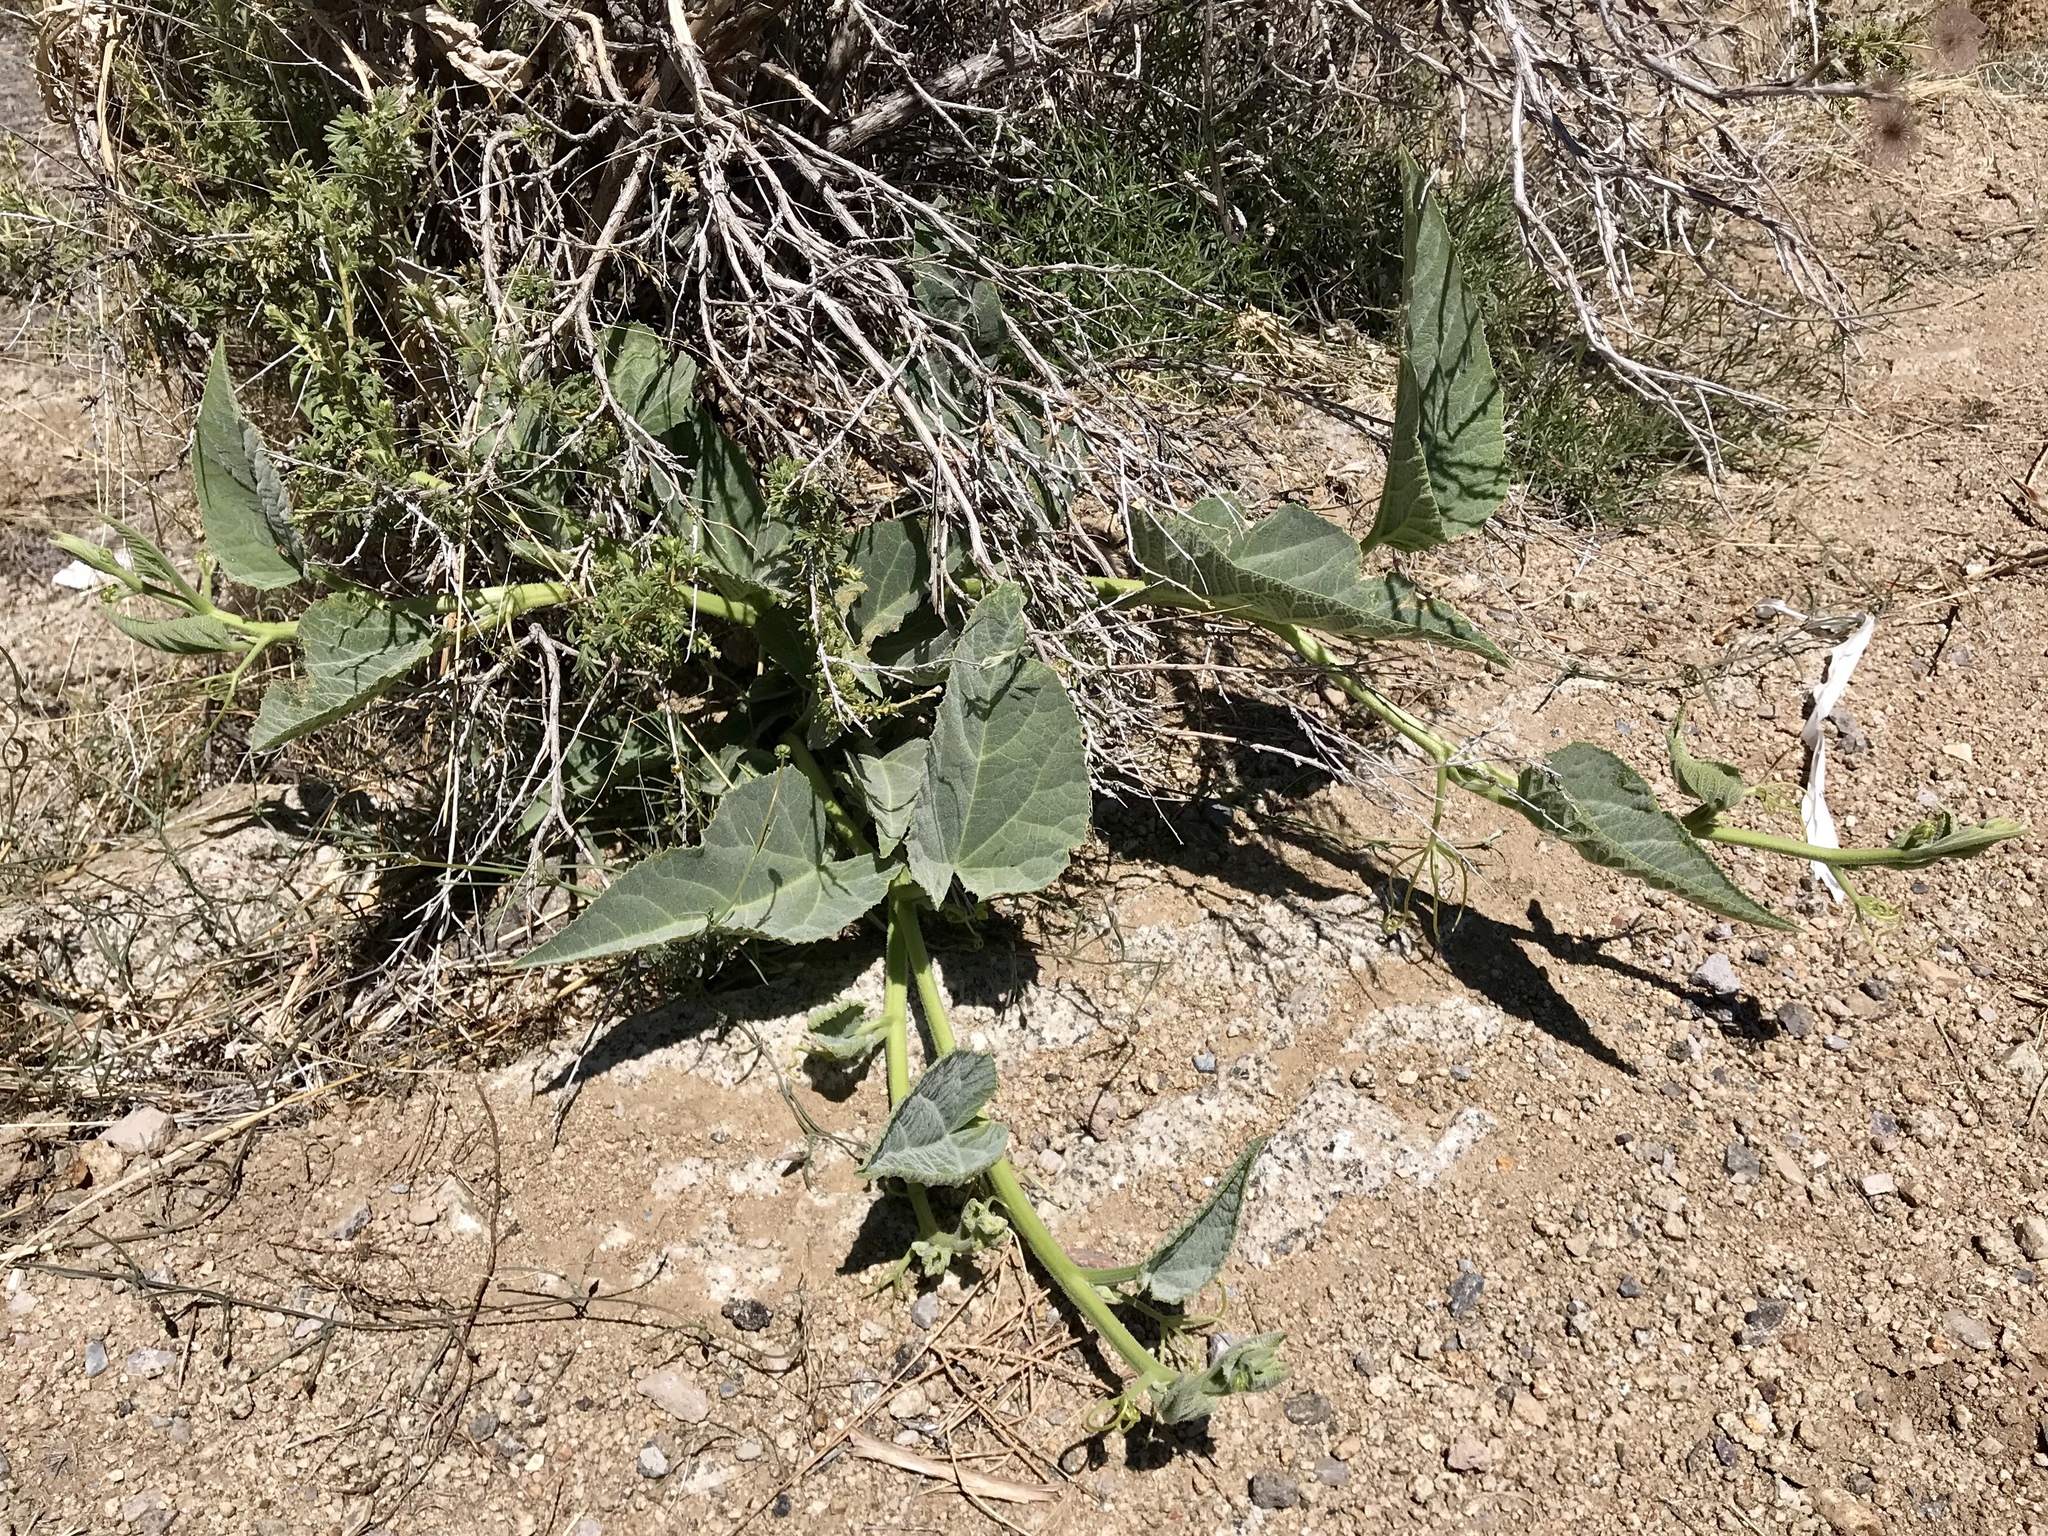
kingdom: Plantae
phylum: Tracheophyta
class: Magnoliopsida
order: Cucurbitales
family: Cucurbitaceae
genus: Cucurbita
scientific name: Cucurbita foetidissima
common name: Buffalo gourd
